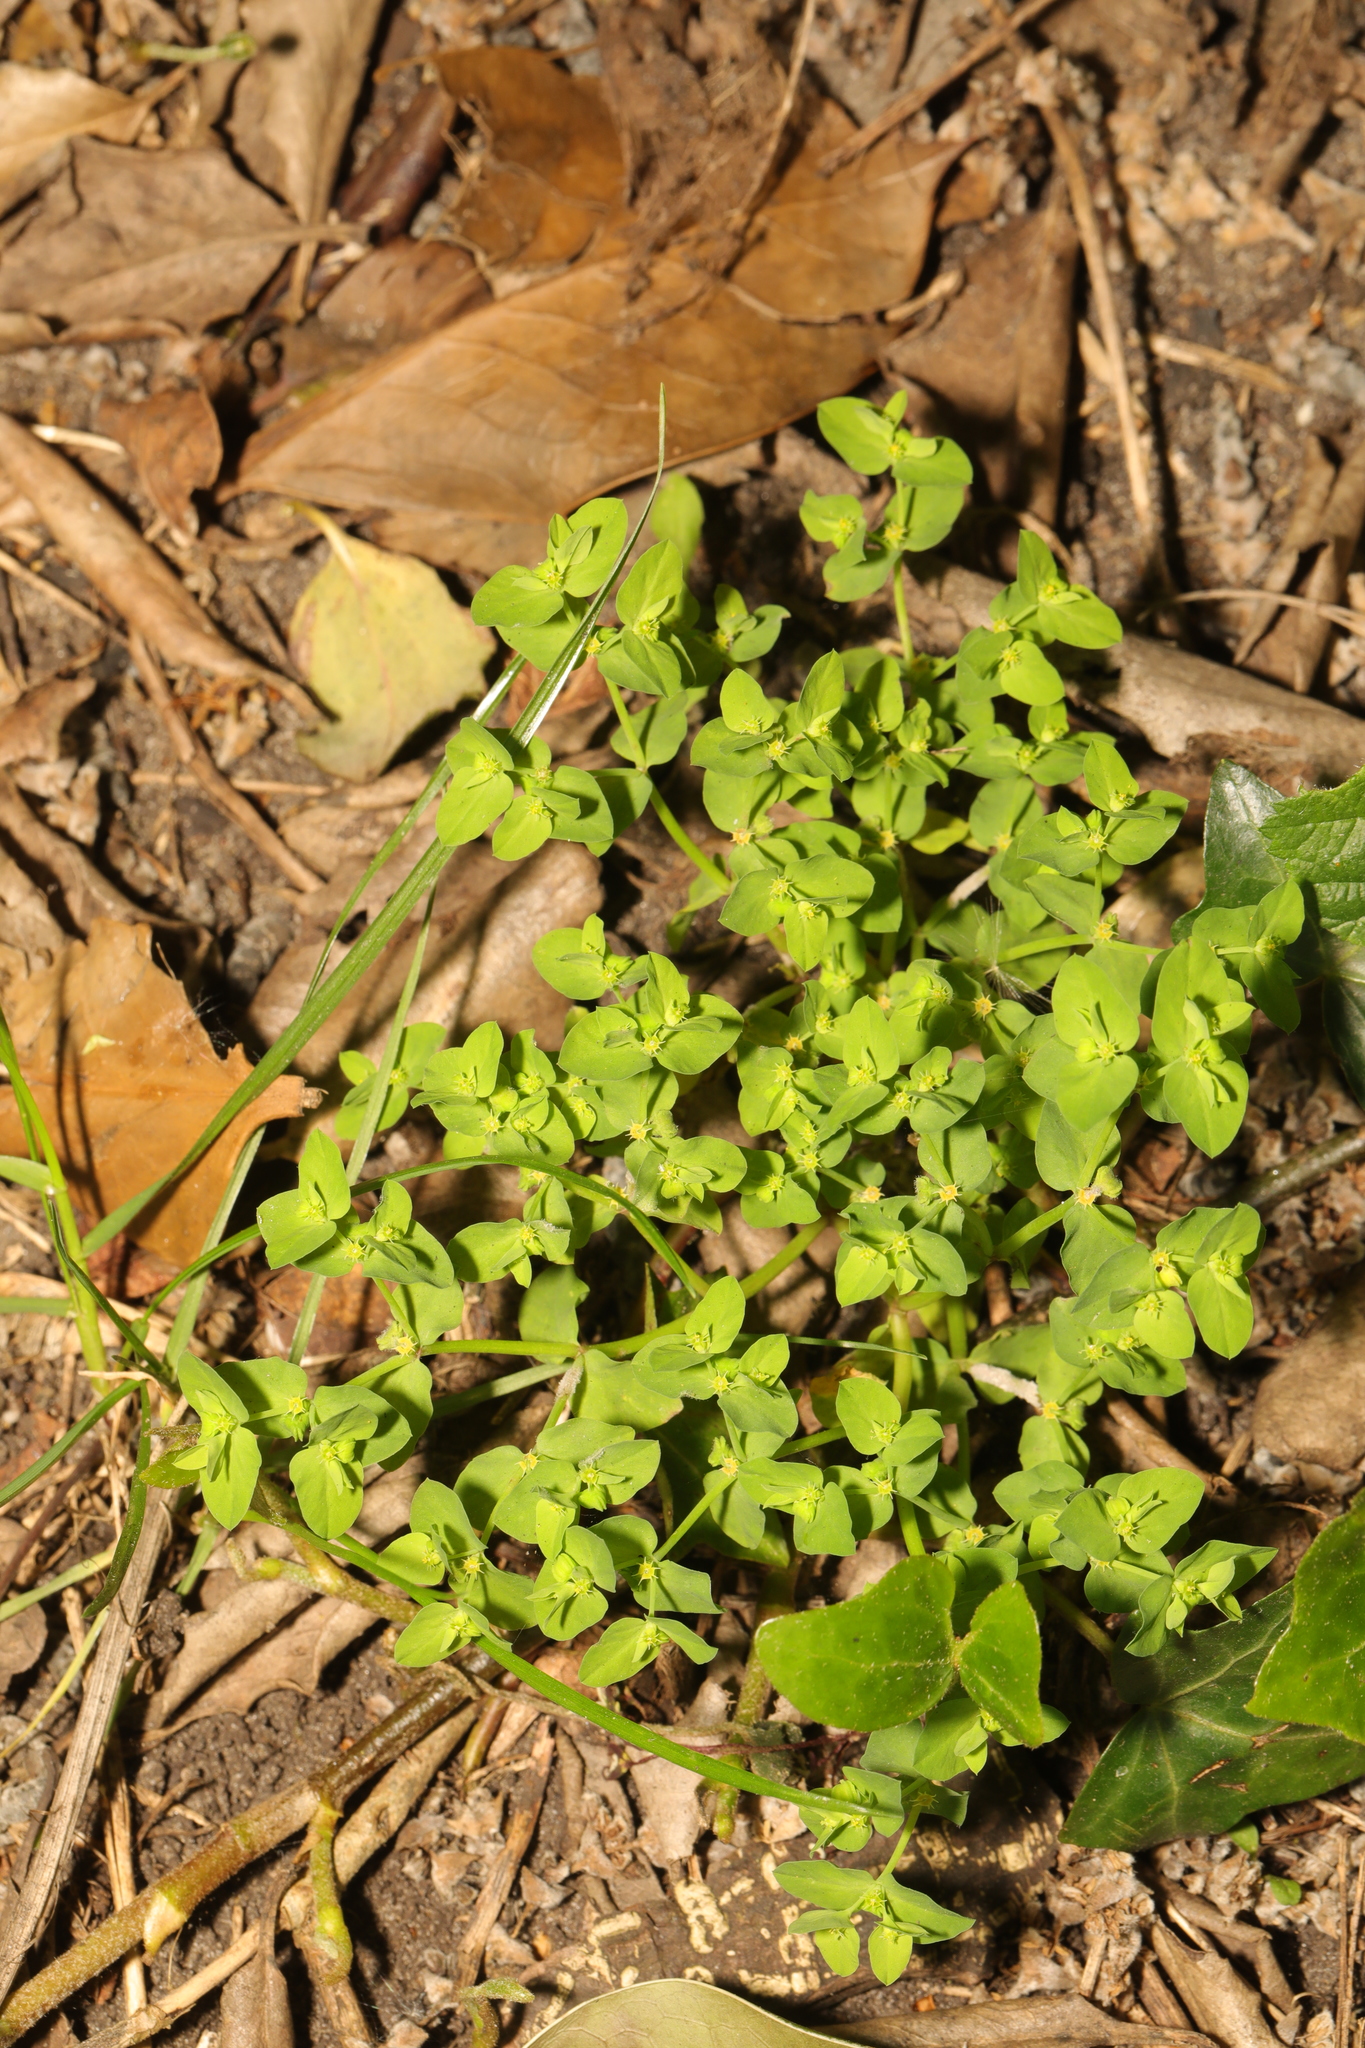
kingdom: Plantae
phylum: Tracheophyta
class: Magnoliopsida
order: Malpighiales
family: Euphorbiaceae
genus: Euphorbia
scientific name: Euphorbia peplus
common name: Petty spurge
